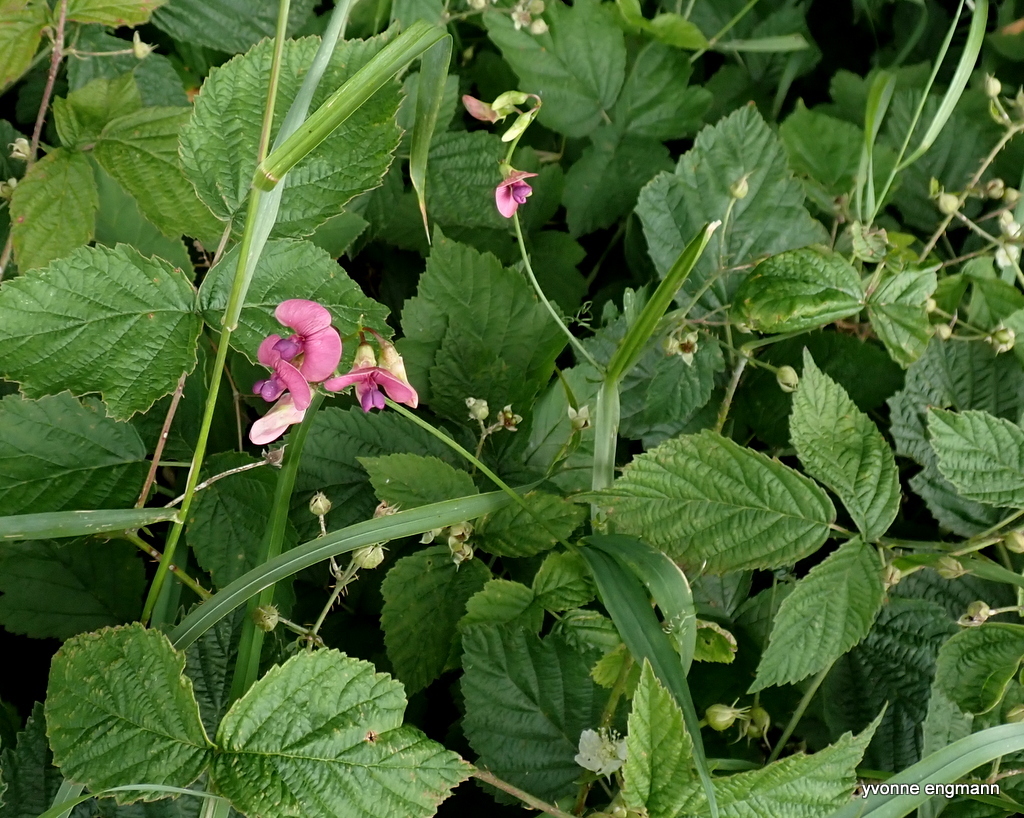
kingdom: Plantae
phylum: Tracheophyta
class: Magnoliopsida
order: Fabales
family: Fabaceae
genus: Lathyrus
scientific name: Lathyrus sylvestris
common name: Flat pea
